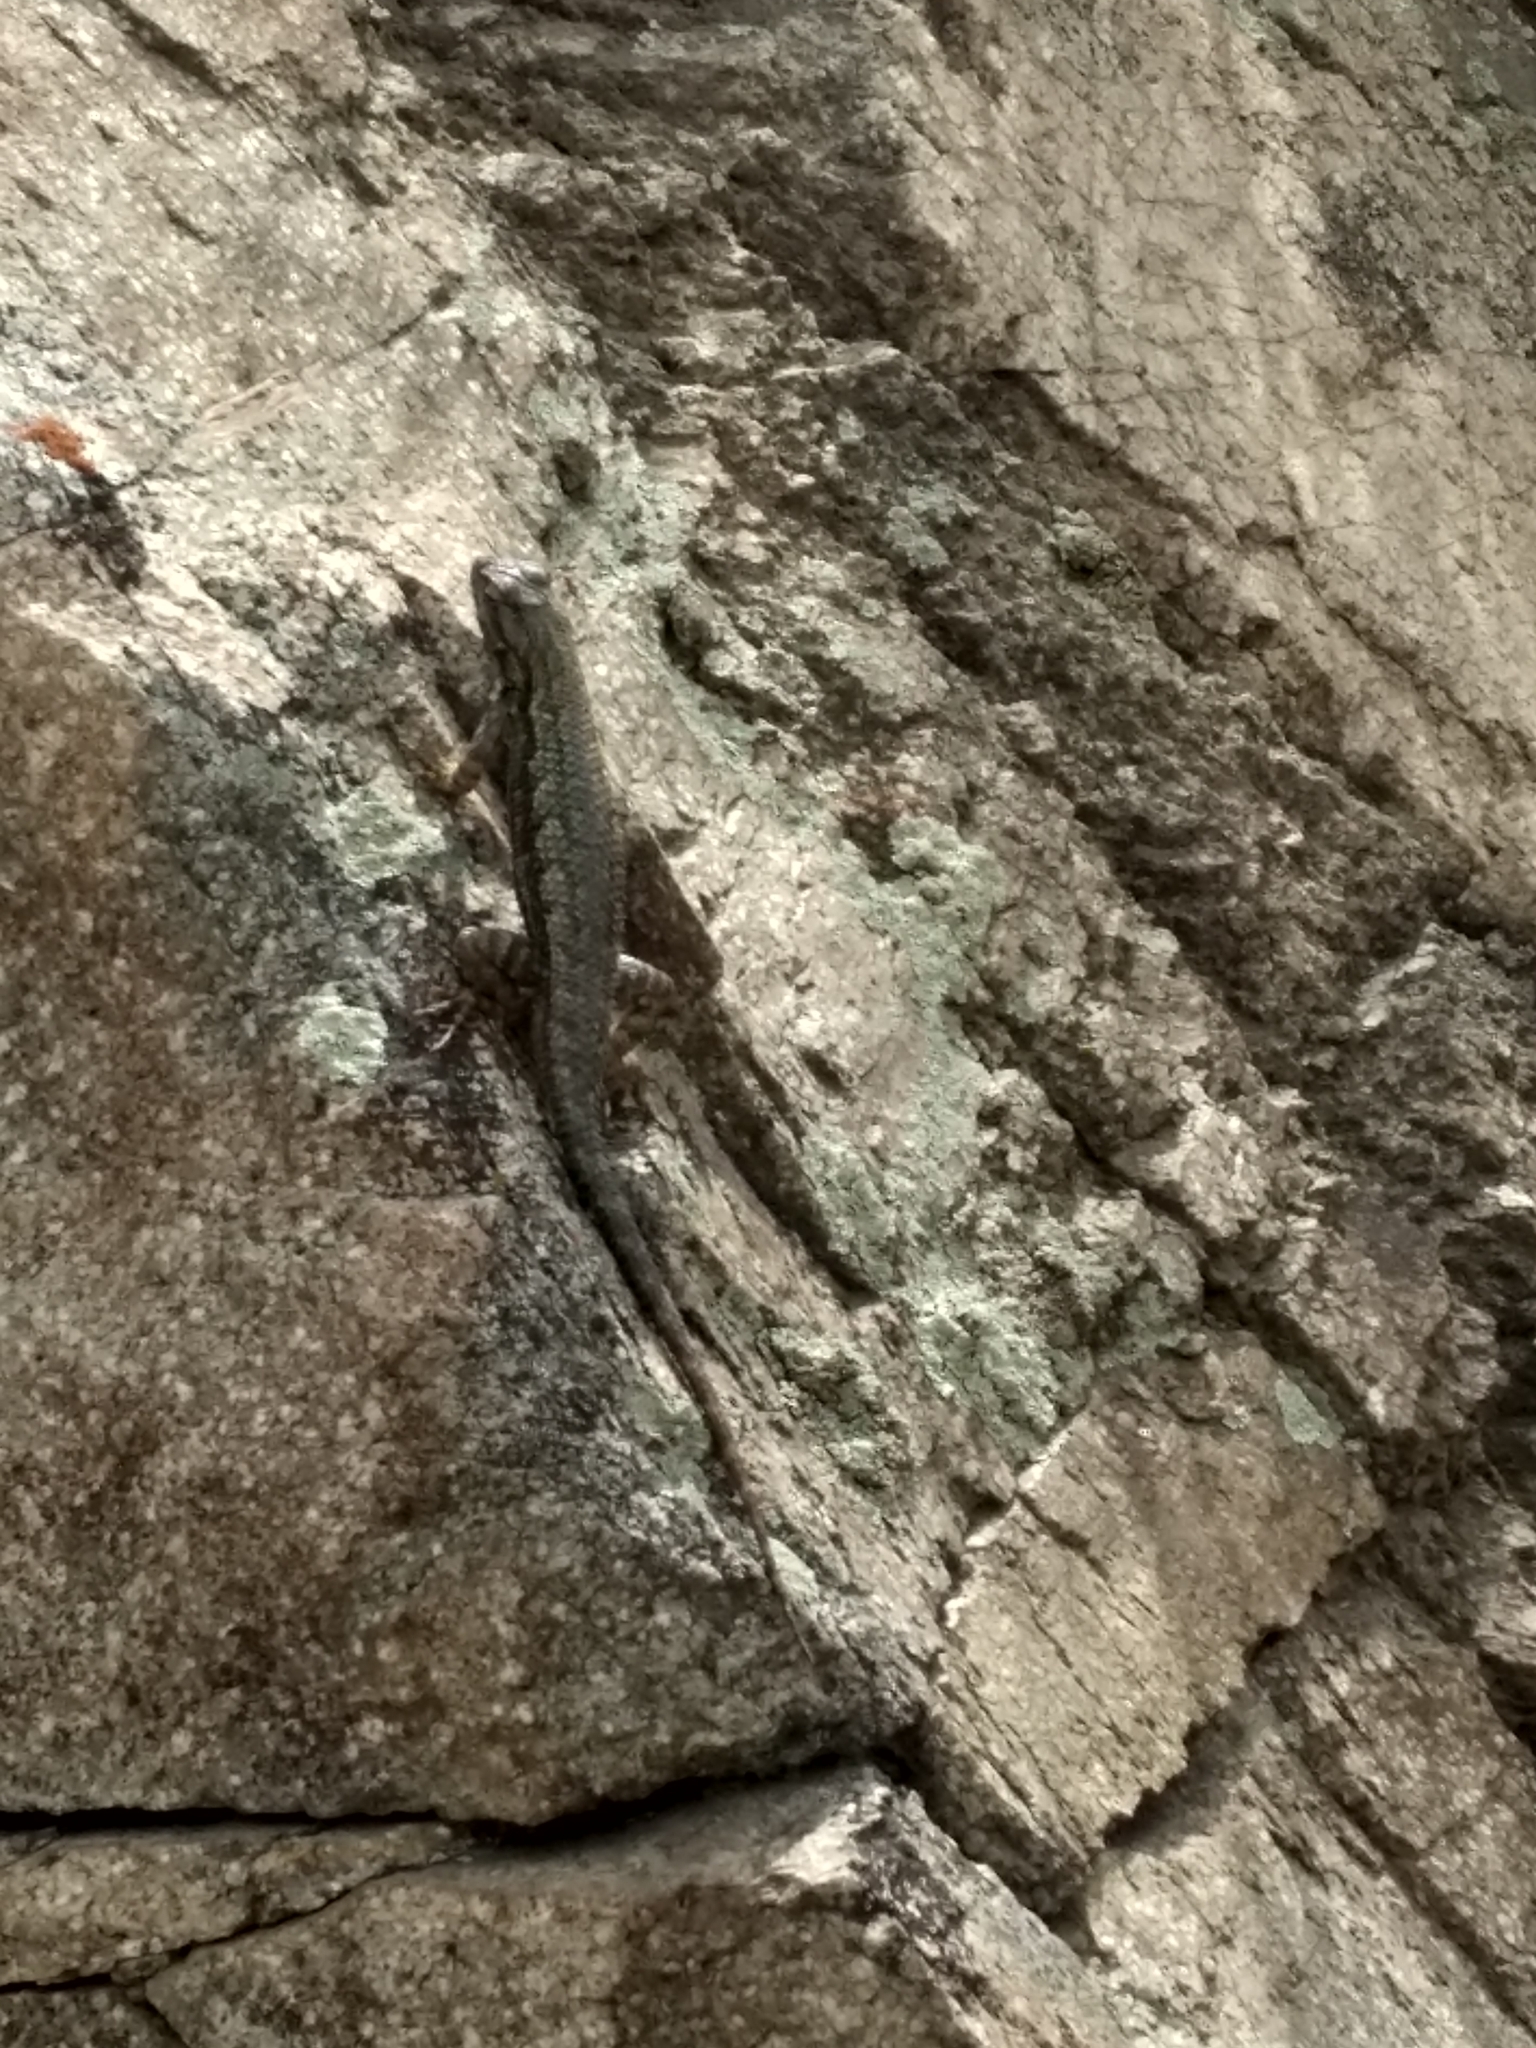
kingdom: Animalia
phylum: Chordata
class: Squamata
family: Phrynosomatidae
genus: Sceloporus
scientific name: Sceloporus occidentalis
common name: Western fence lizard
